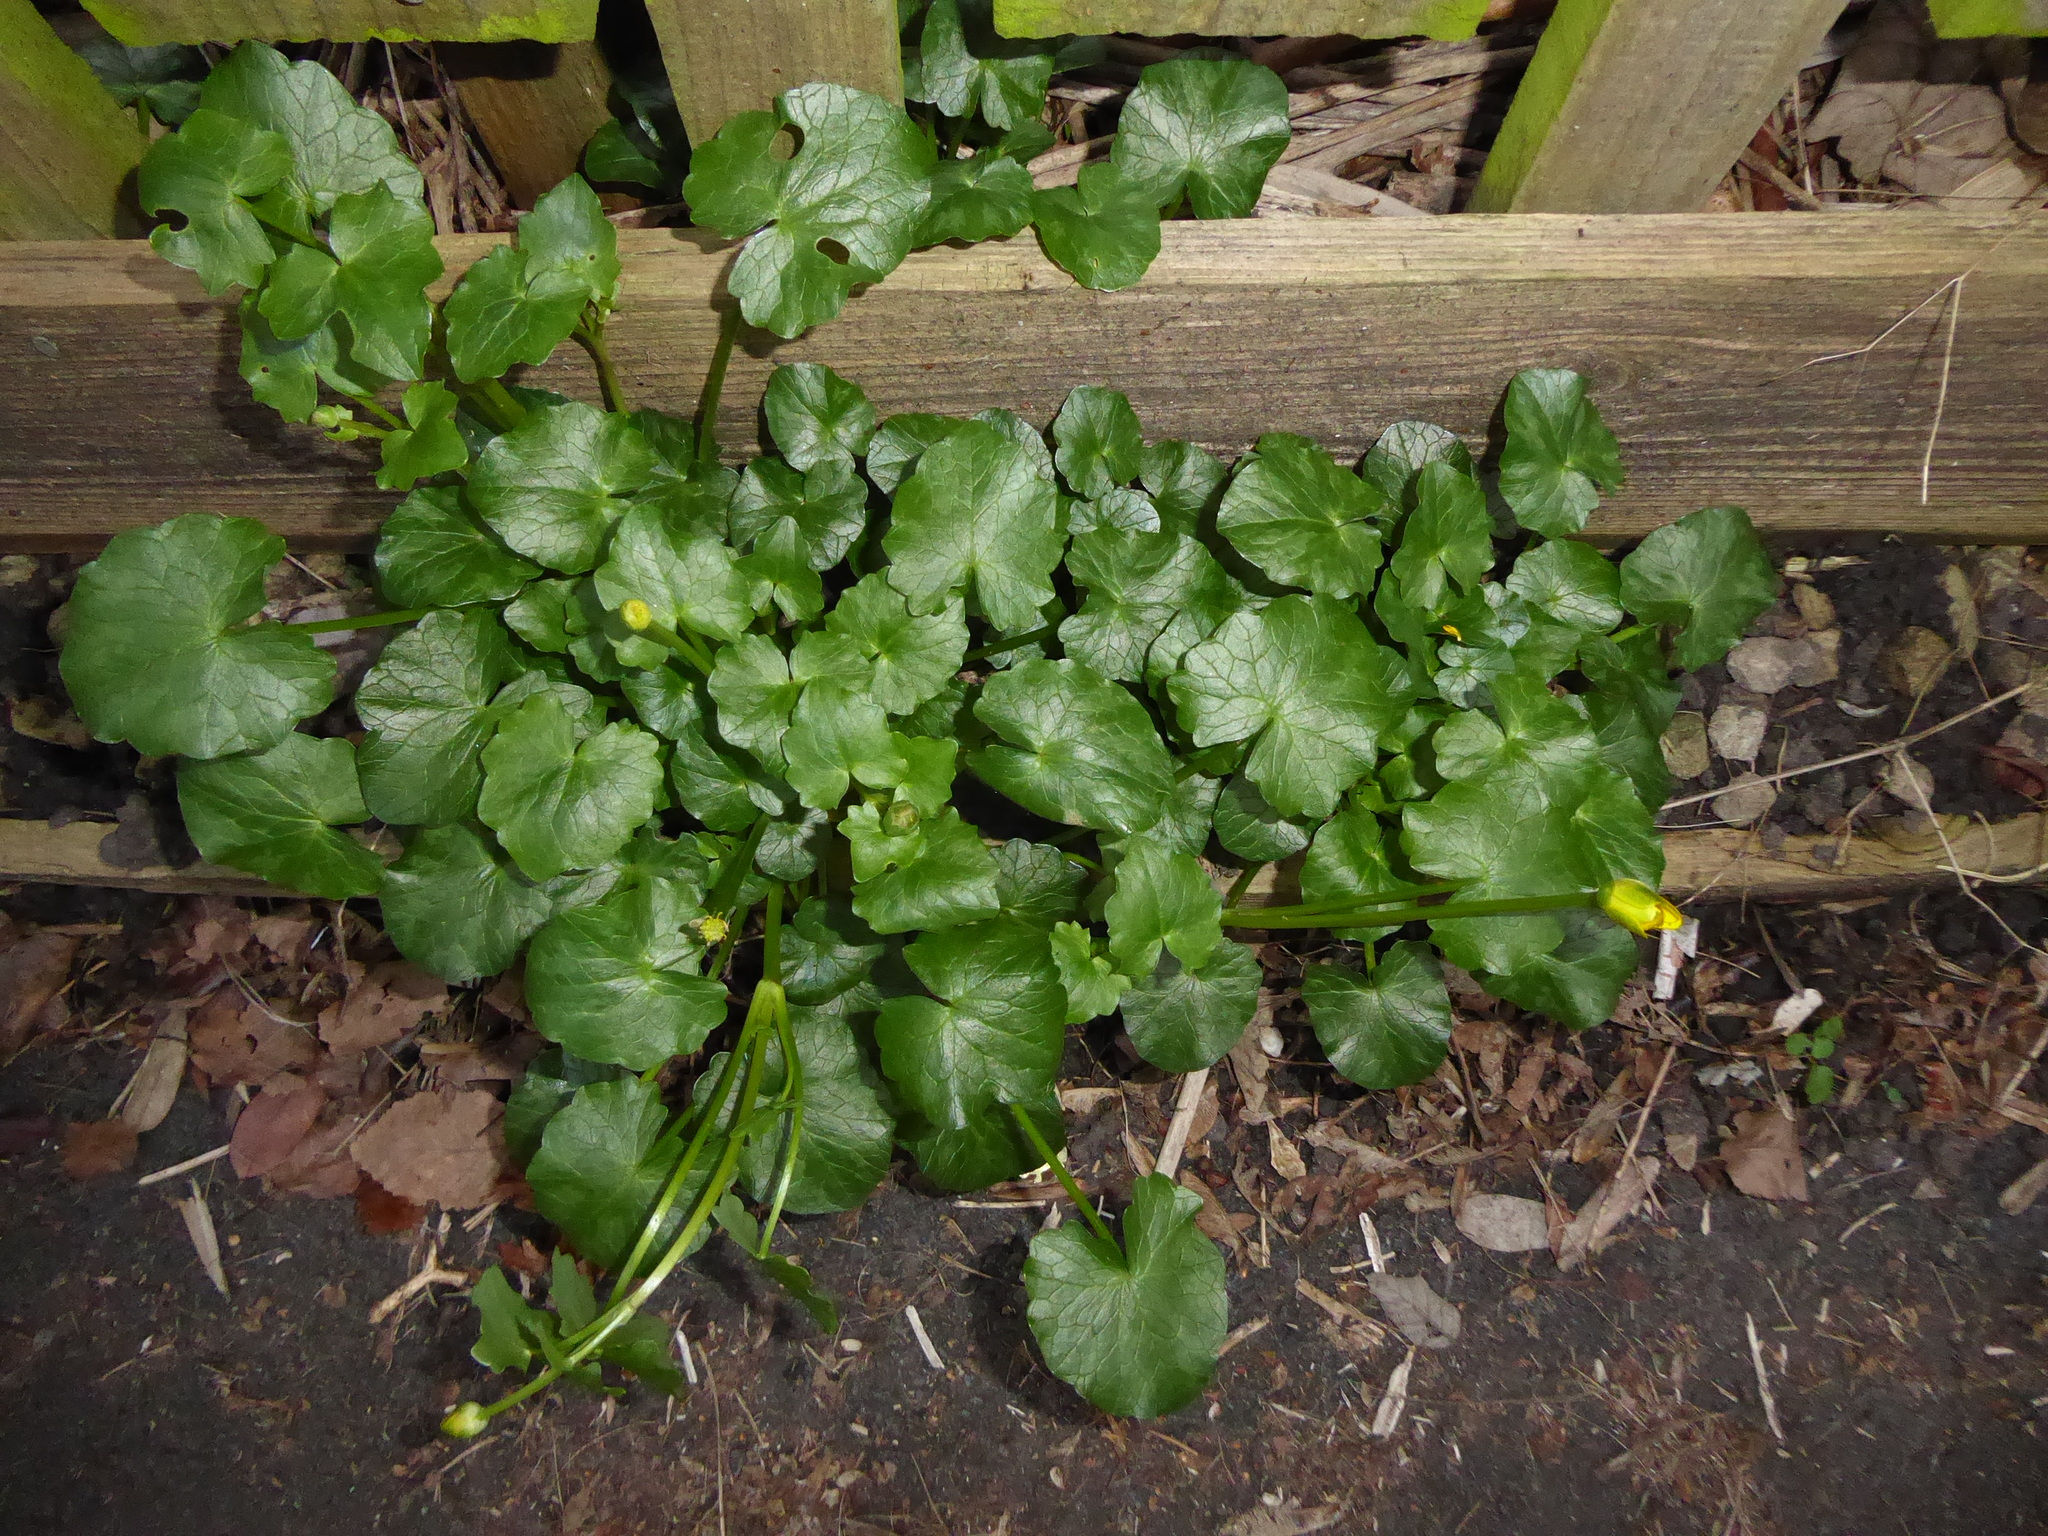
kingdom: Plantae
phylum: Tracheophyta
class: Magnoliopsida
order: Ranunculales
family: Ranunculaceae
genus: Ficaria
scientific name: Ficaria verna
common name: Lesser celandine
